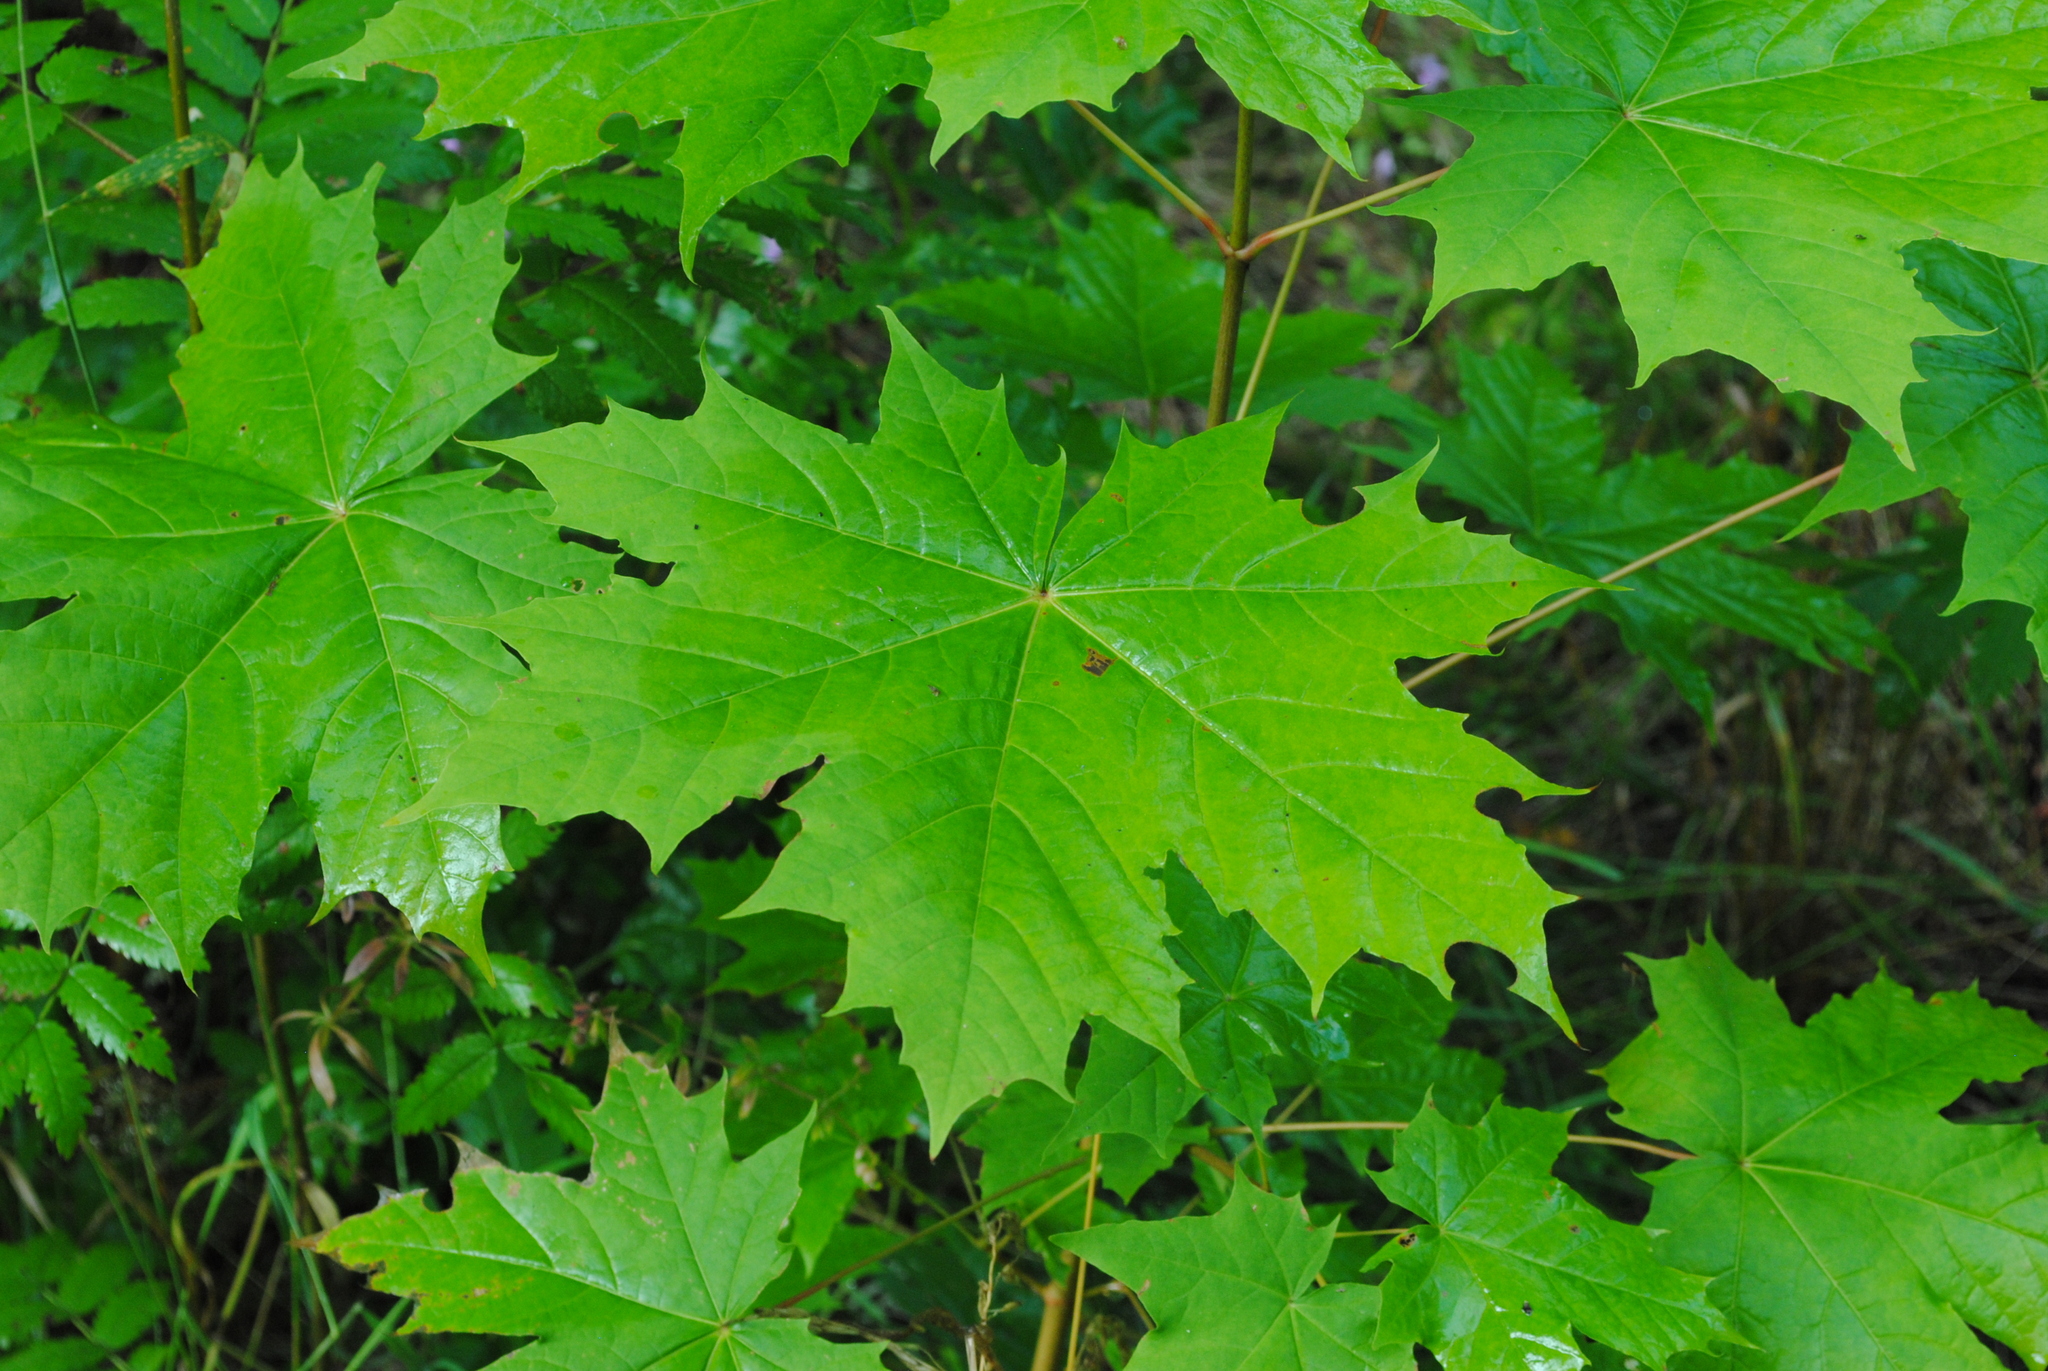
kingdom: Plantae
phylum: Tracheophyta
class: Magnoliopsida
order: Sapindales
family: Sapindaceae
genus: Acer
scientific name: Acer platanoides
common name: Norway maple
